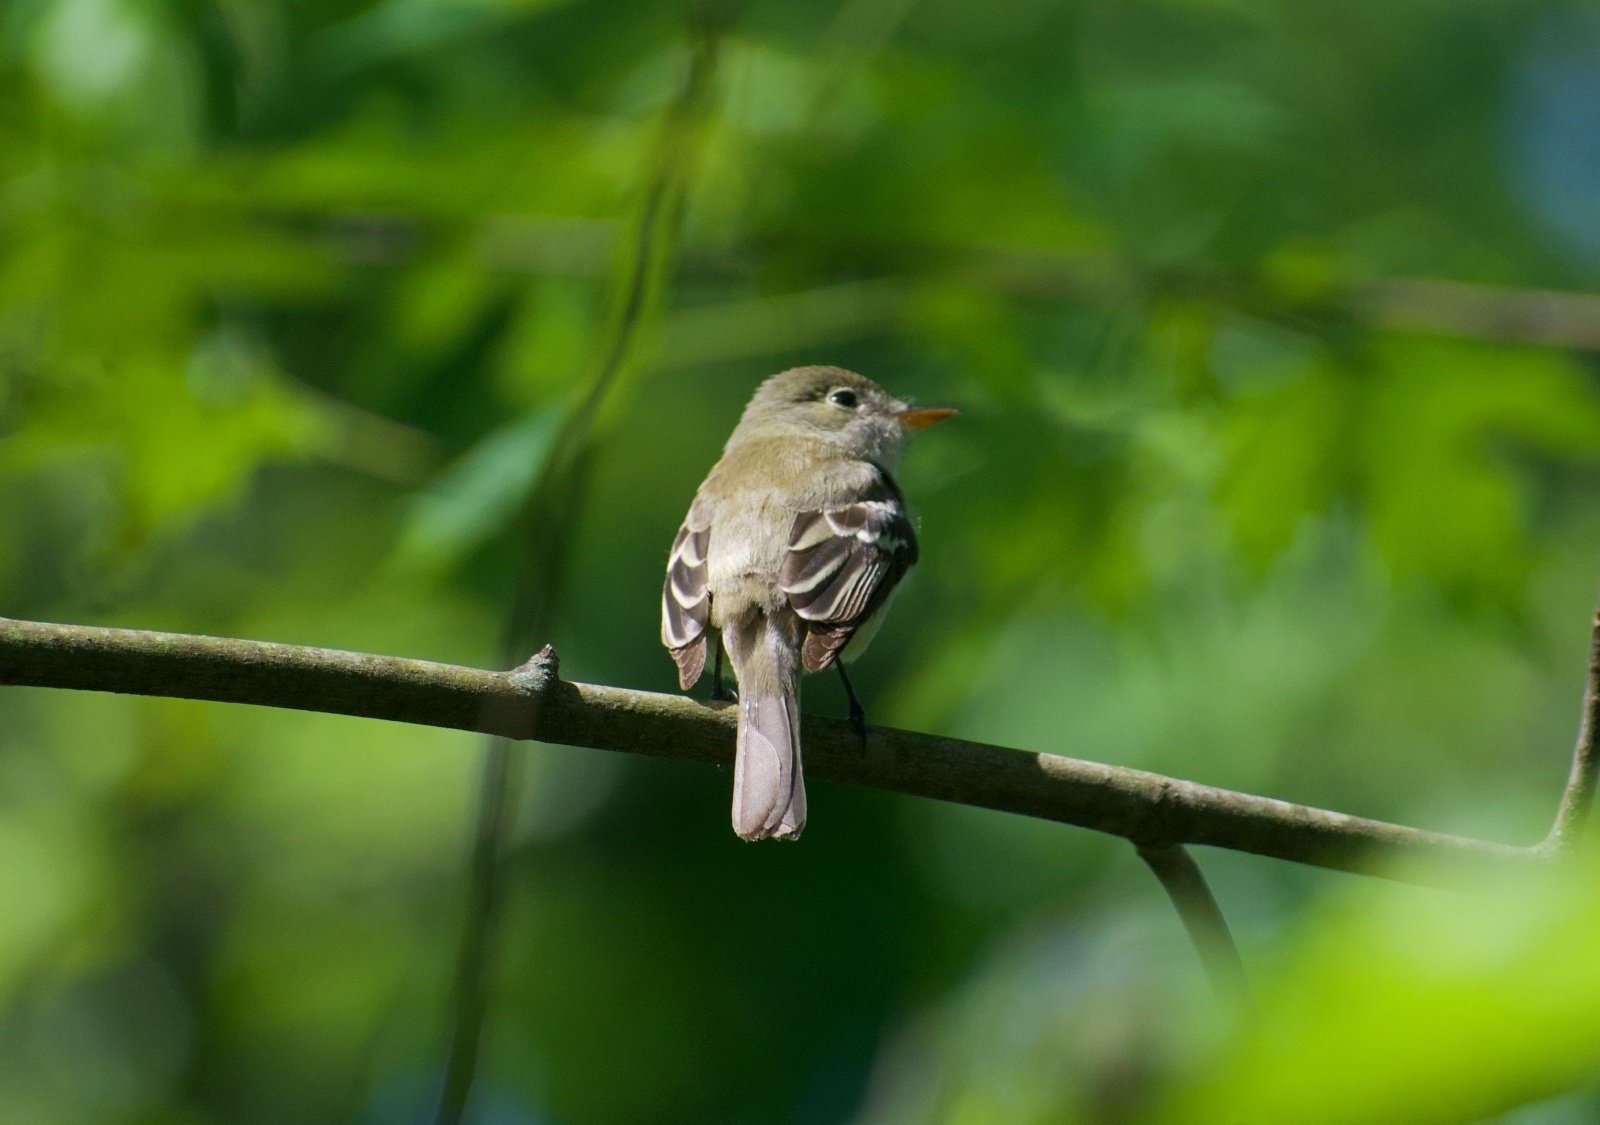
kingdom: Animalia
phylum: Chordata
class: Aves
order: Passeriformes
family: Tyrannidae
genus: Empidonax
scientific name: Empidonax minimus
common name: Least flycatcher
